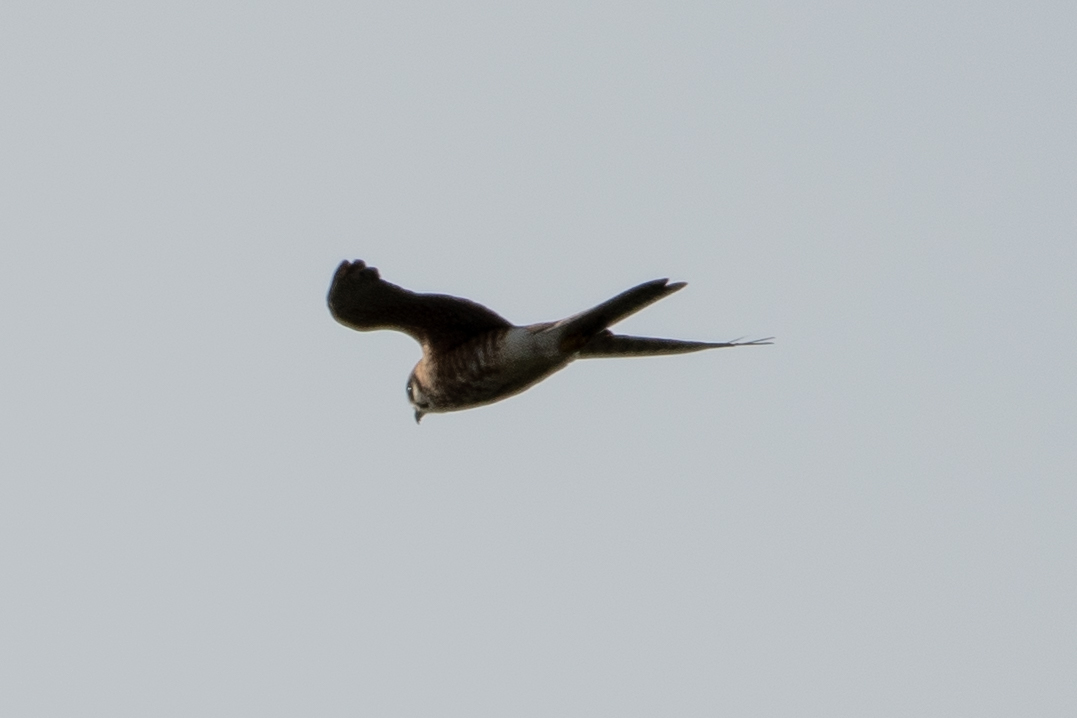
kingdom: Animalia
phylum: Chordata
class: Aves
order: Falconiformes
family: Falconidae
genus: Falco
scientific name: Falco sparverius
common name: American kestrel
